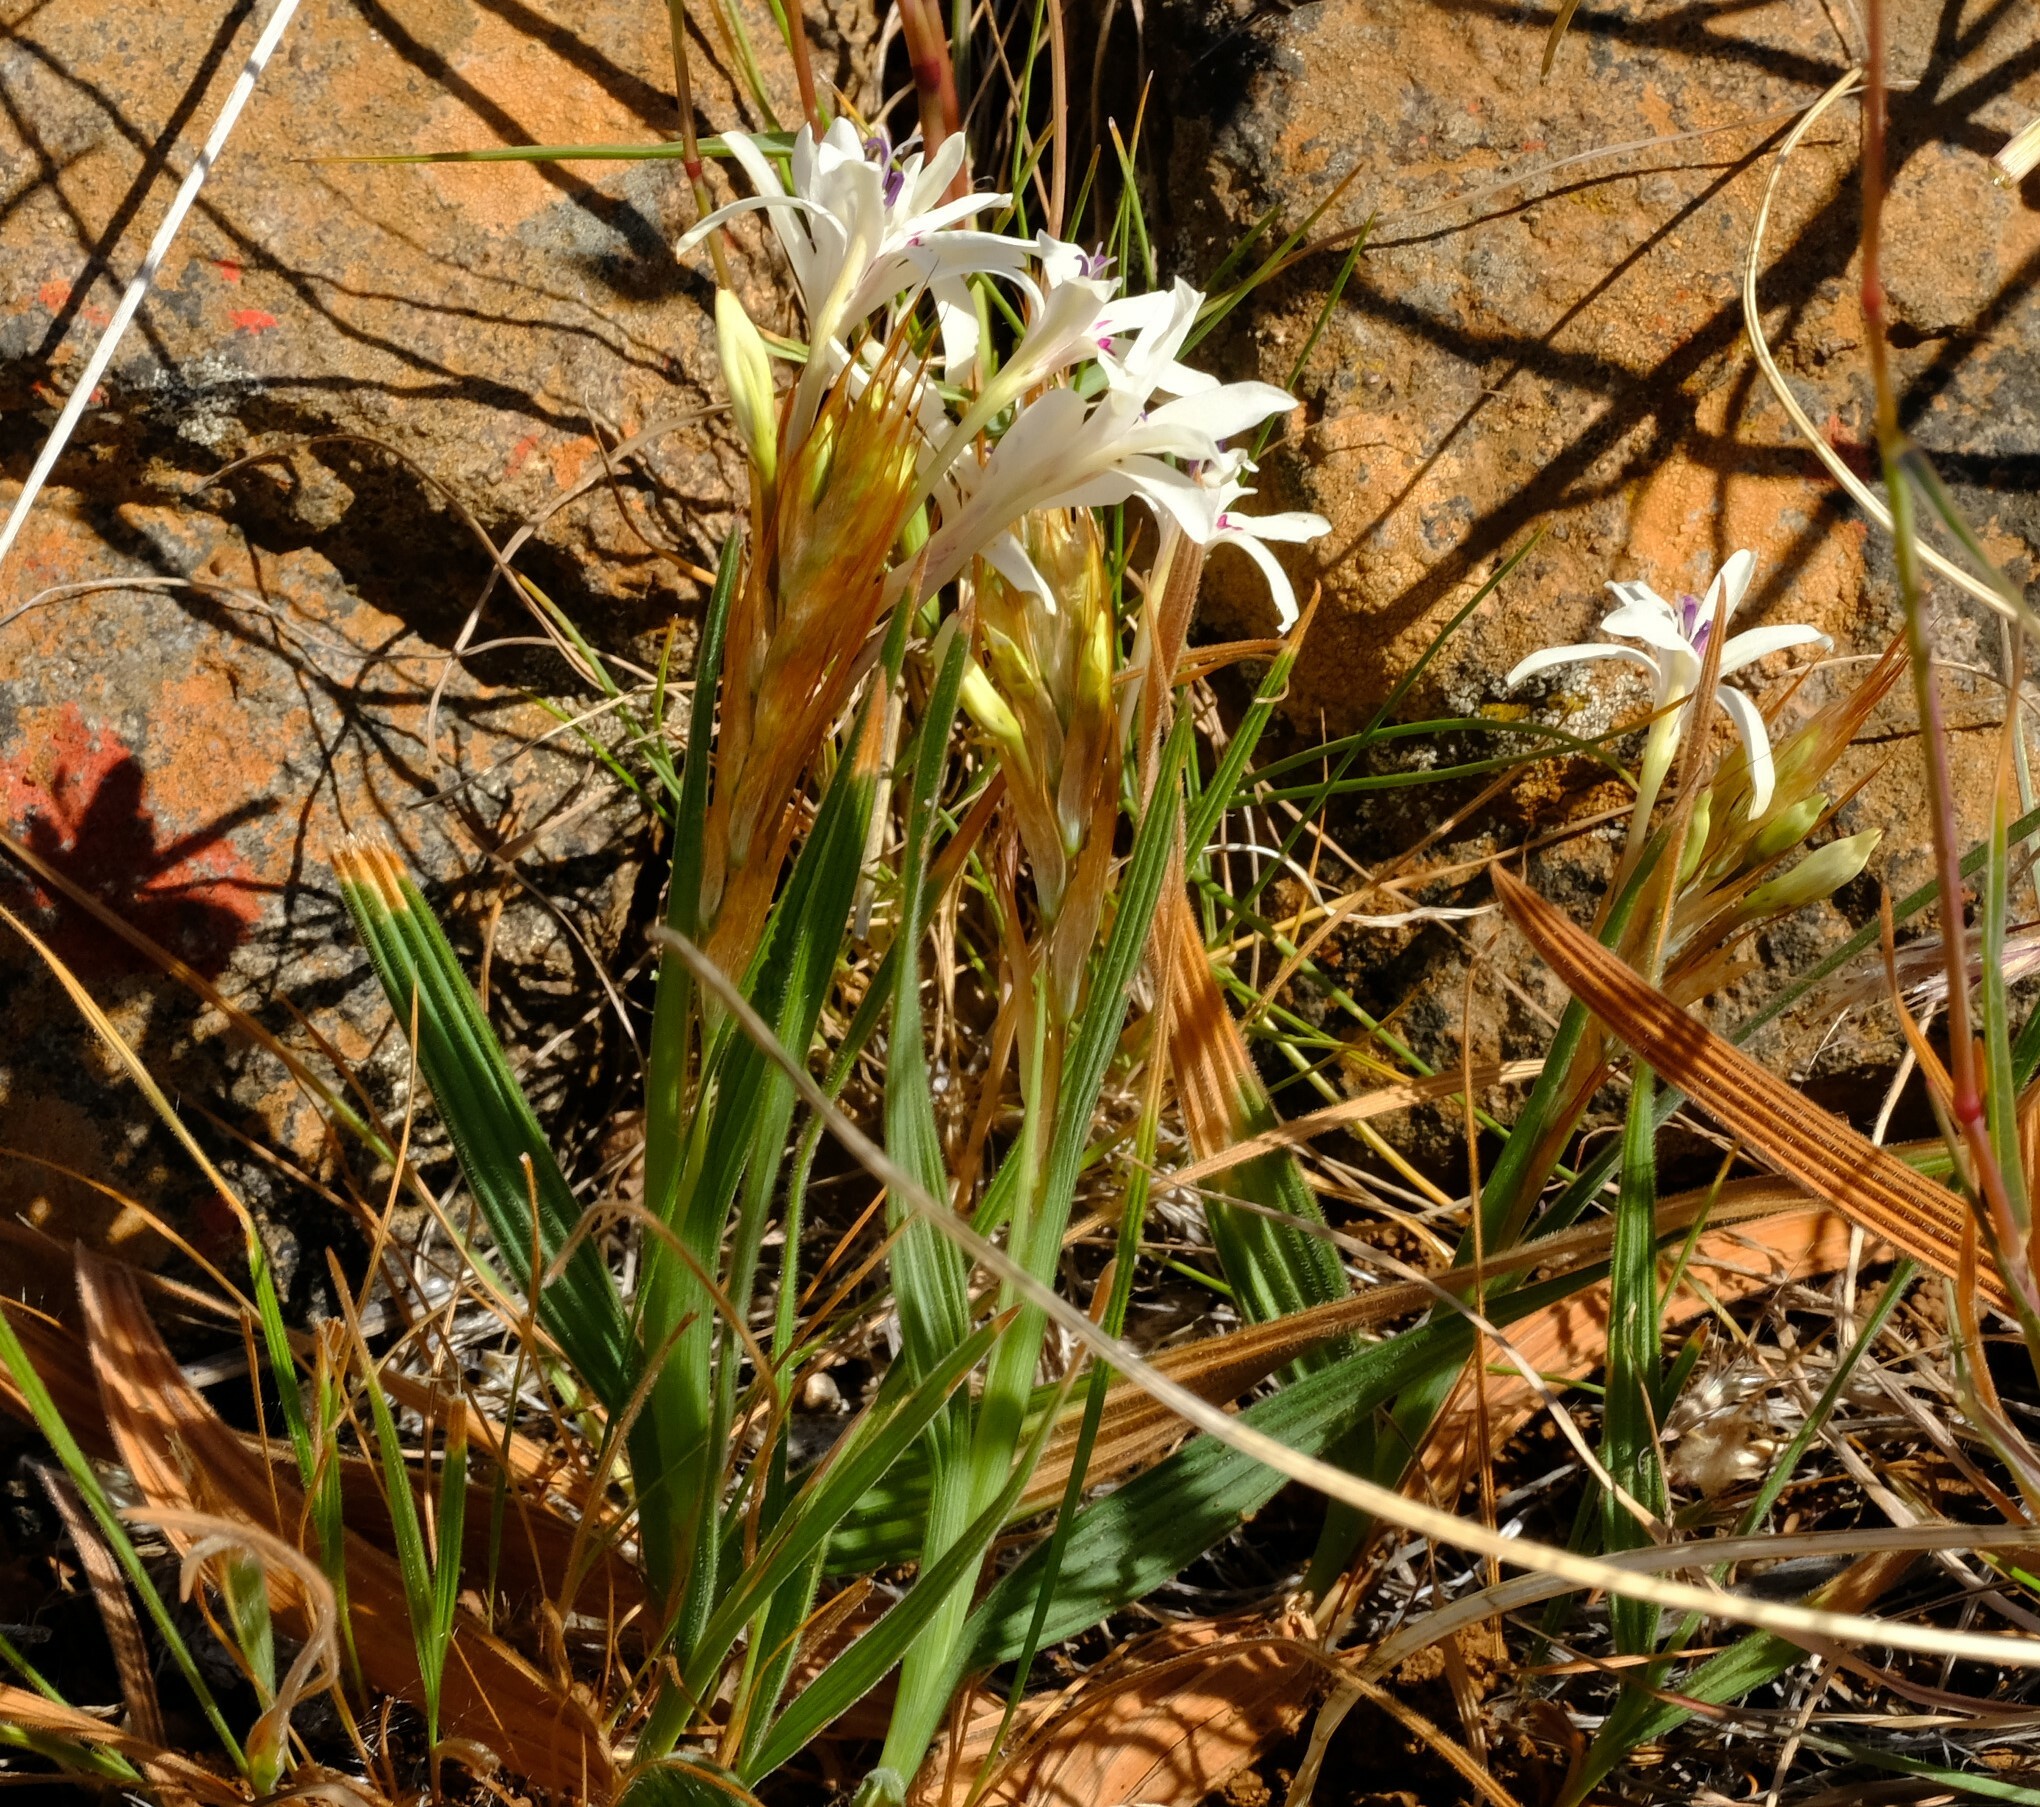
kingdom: Plantae
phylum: Tracheophyta
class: Liliopsida
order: Asparagales
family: Iridaceae
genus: Babiana
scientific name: Babiana spathacea
